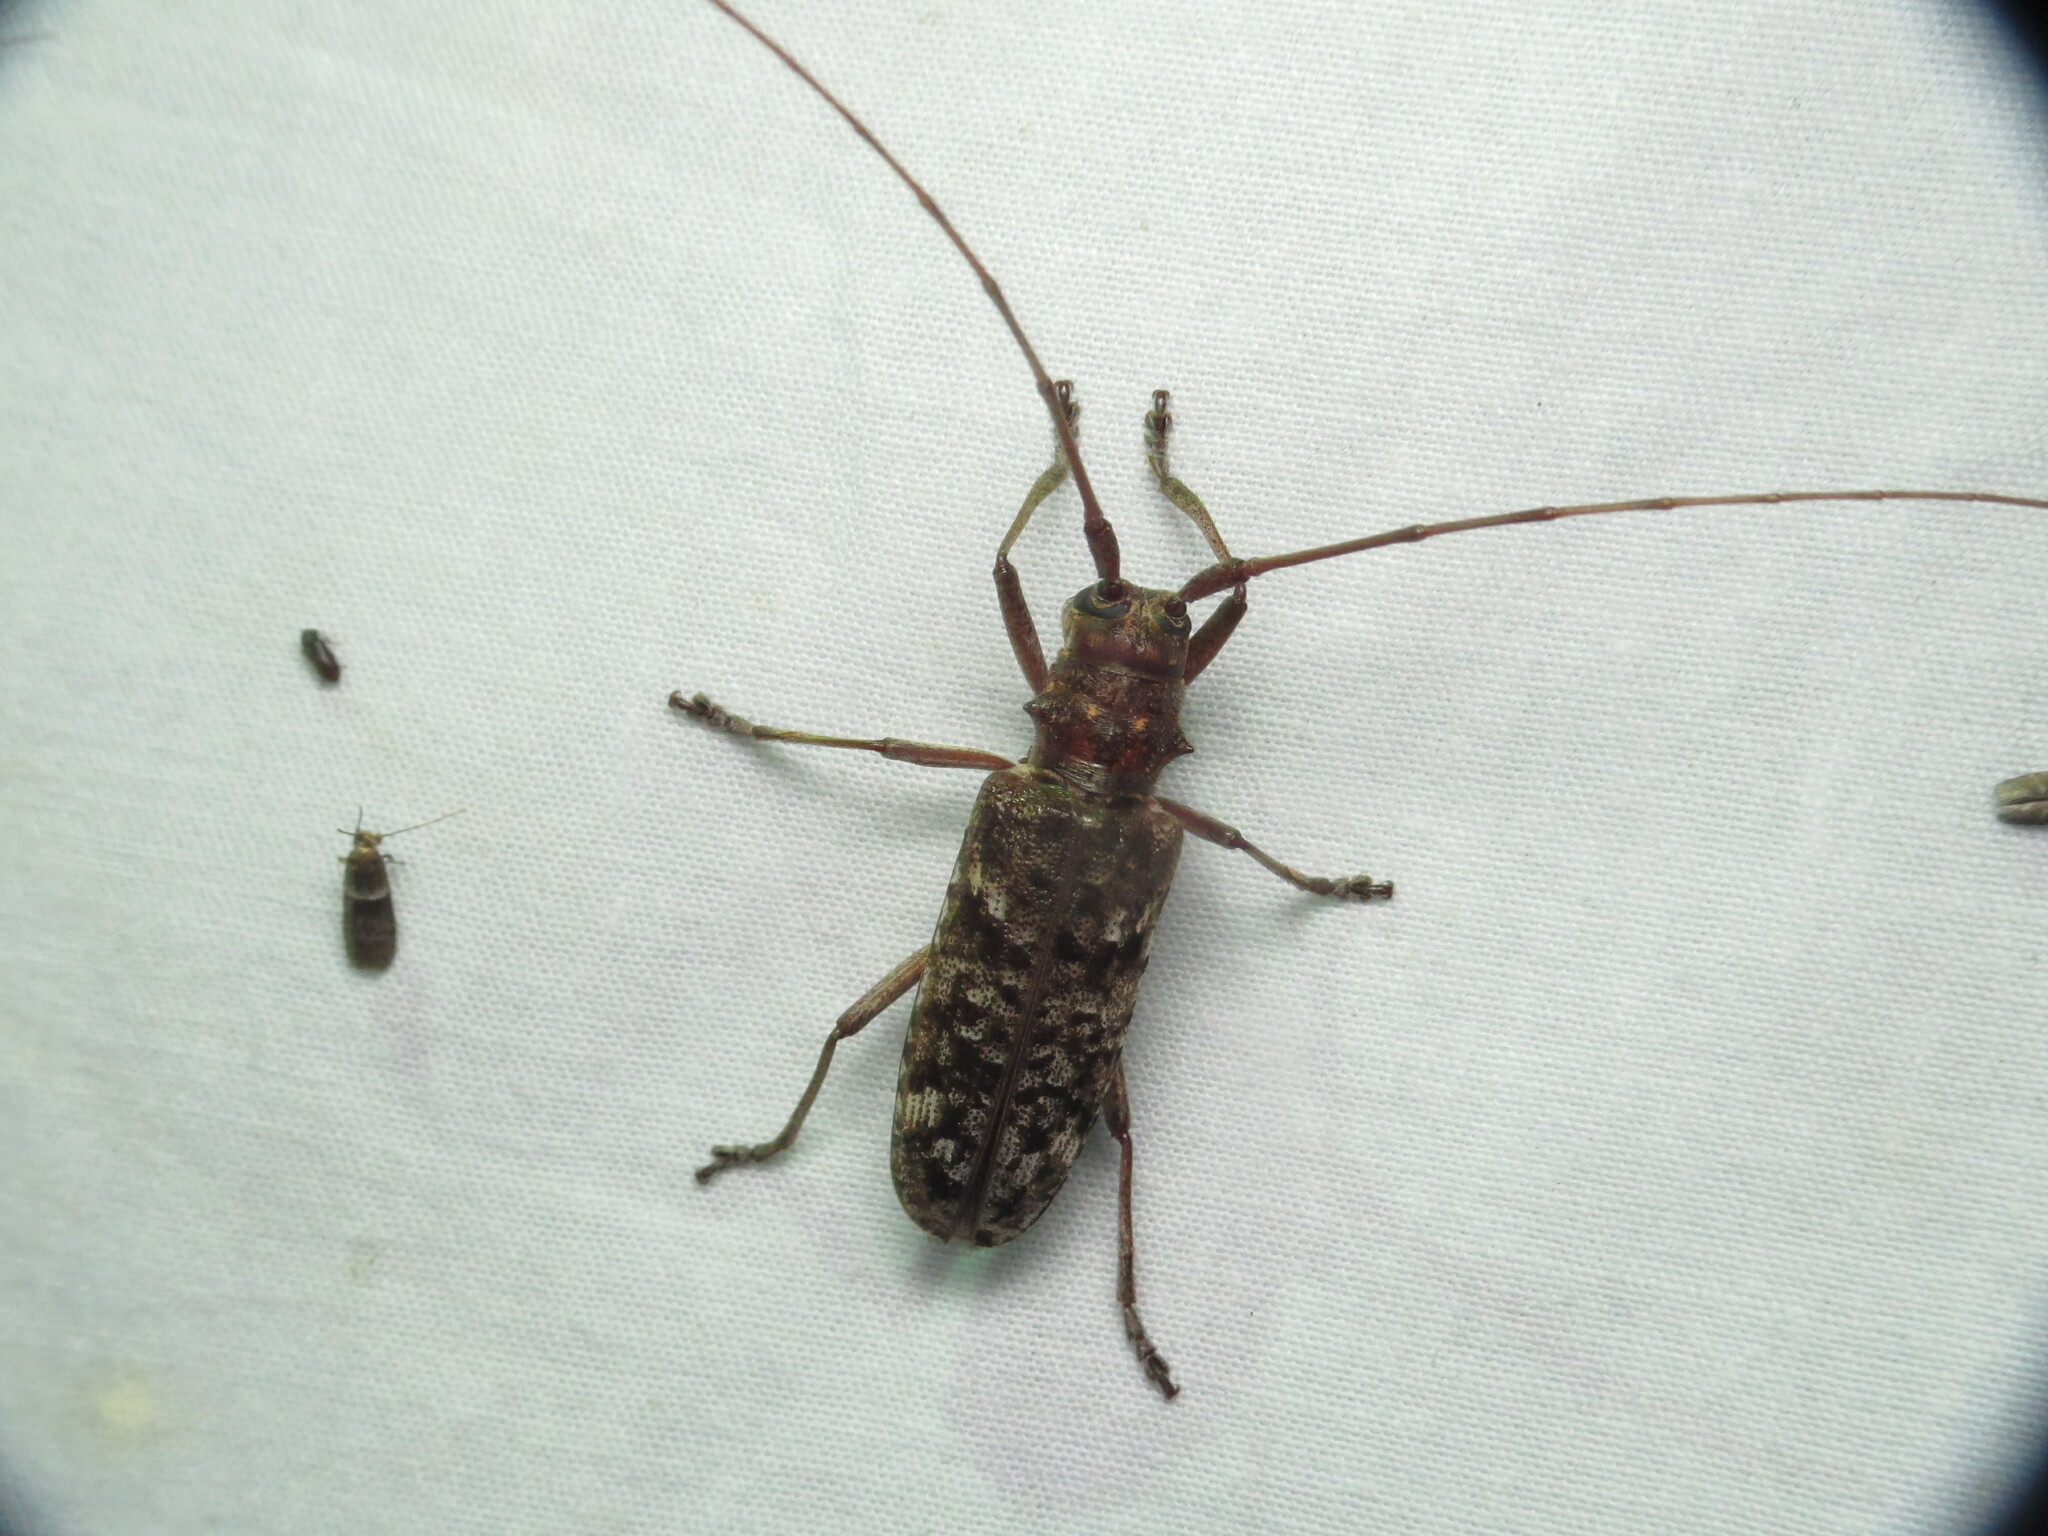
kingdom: Animalia
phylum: Arthropoda
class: Insecta
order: Coleoptera
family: Cerambycidae
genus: Monochamus
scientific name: Monochamus carolinensis
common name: Carolina pine sawyer
